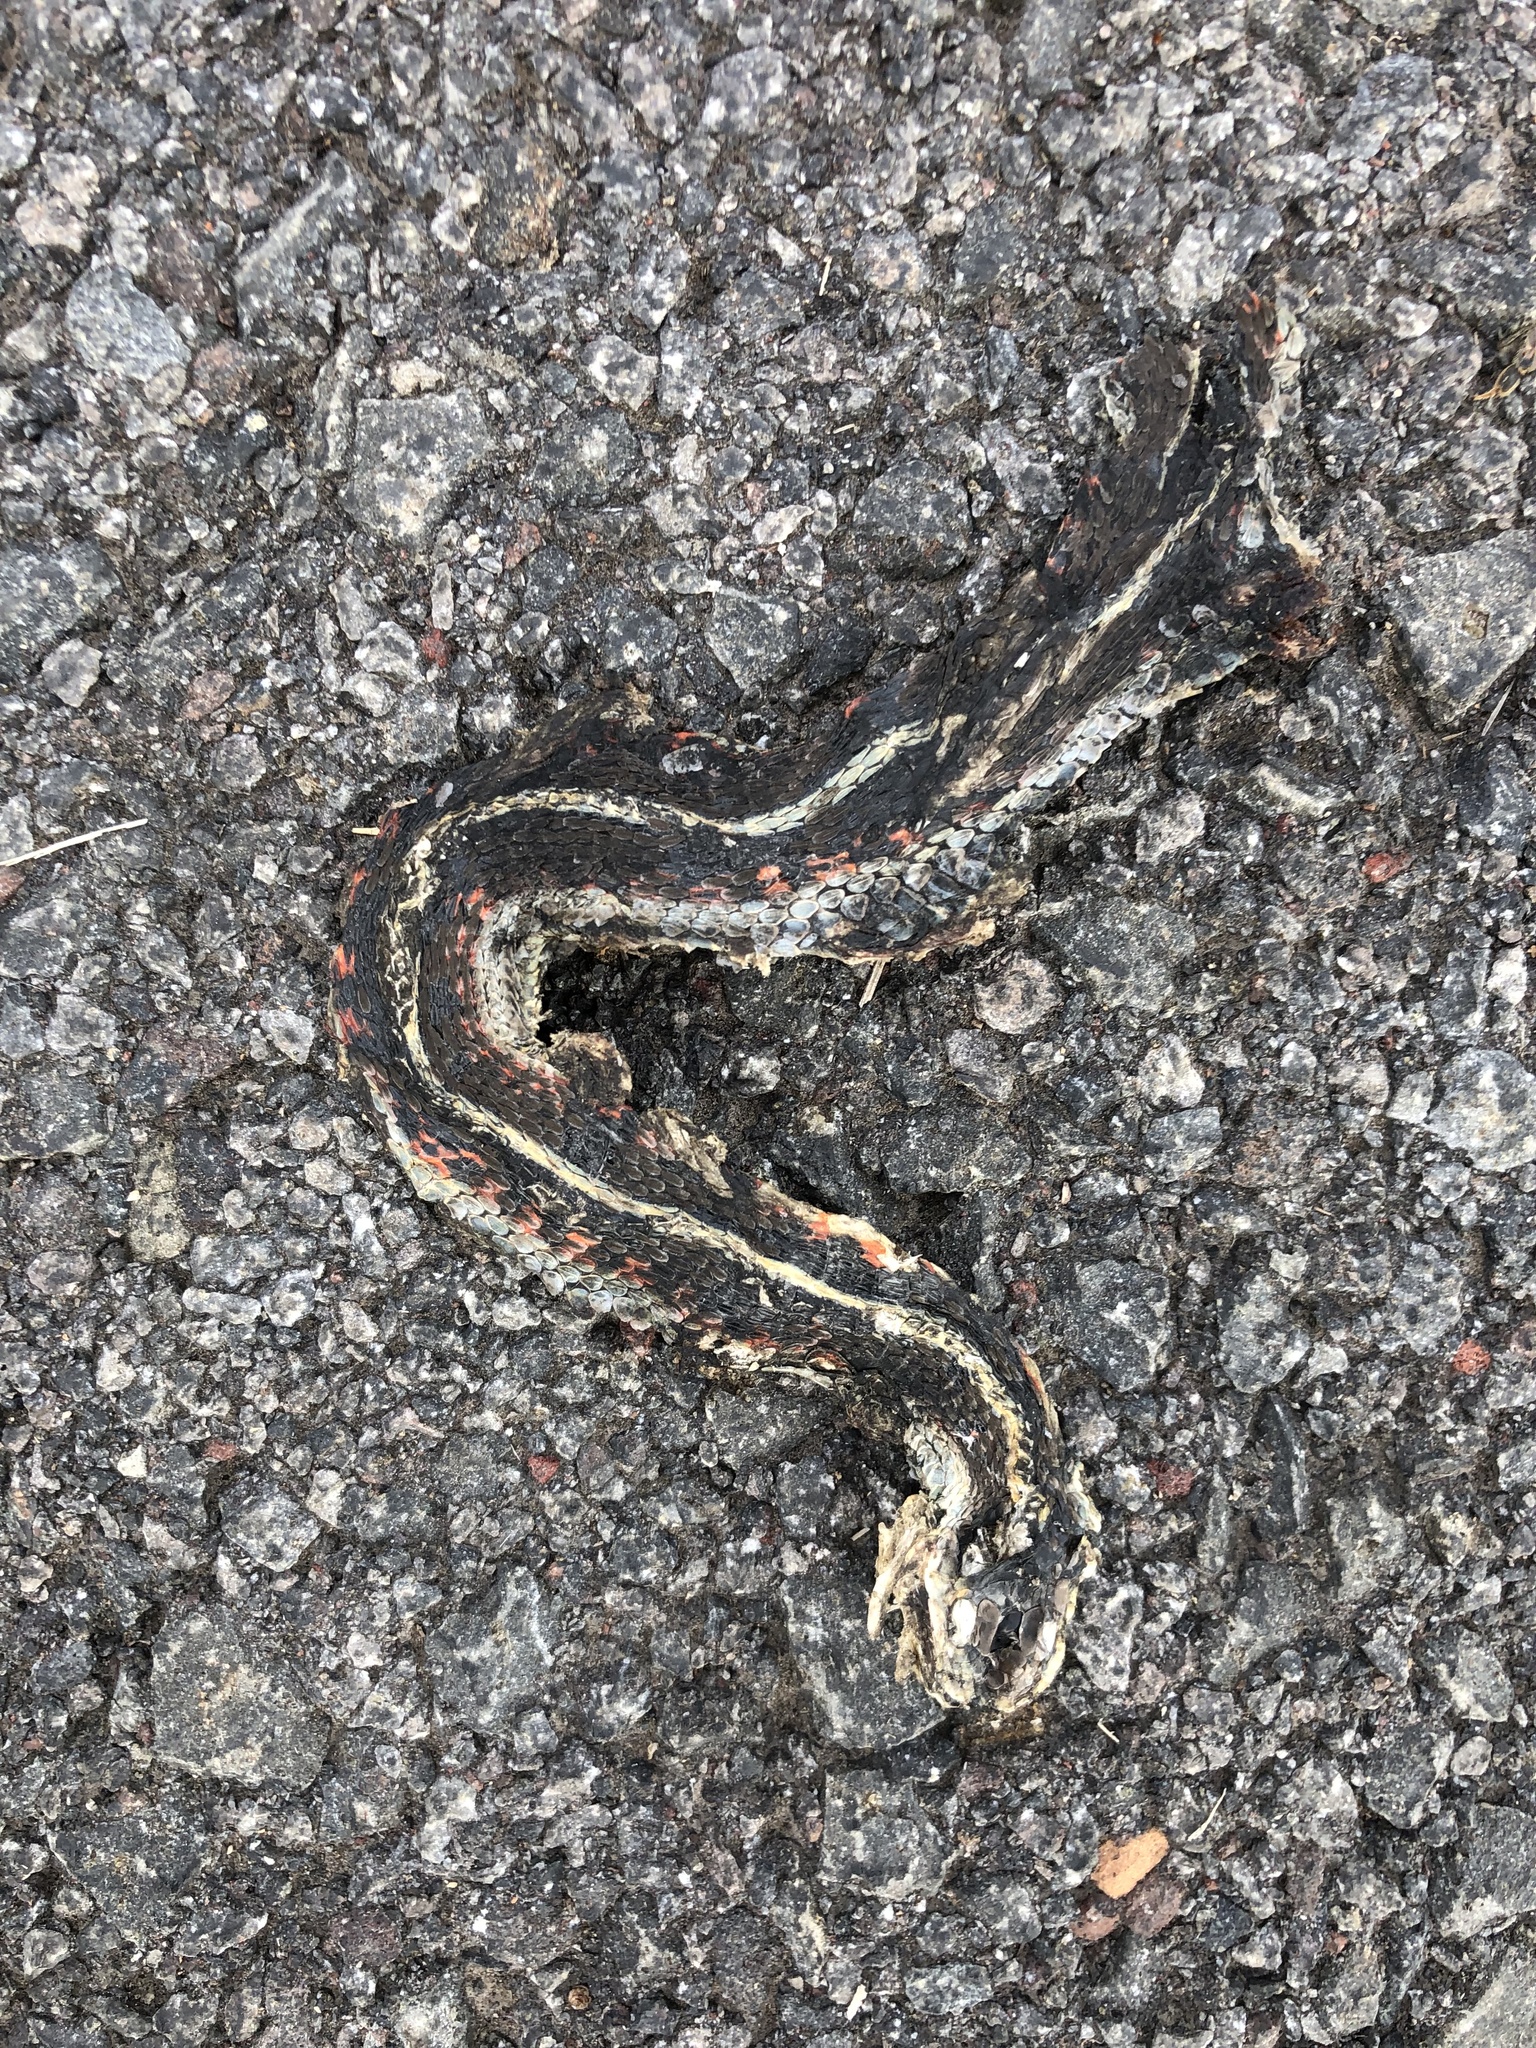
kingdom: Animalia
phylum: Chordata
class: Squamata
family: Colubridae
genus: Thamnophis
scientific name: Thamnophis sirtalis
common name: Common garter snake
